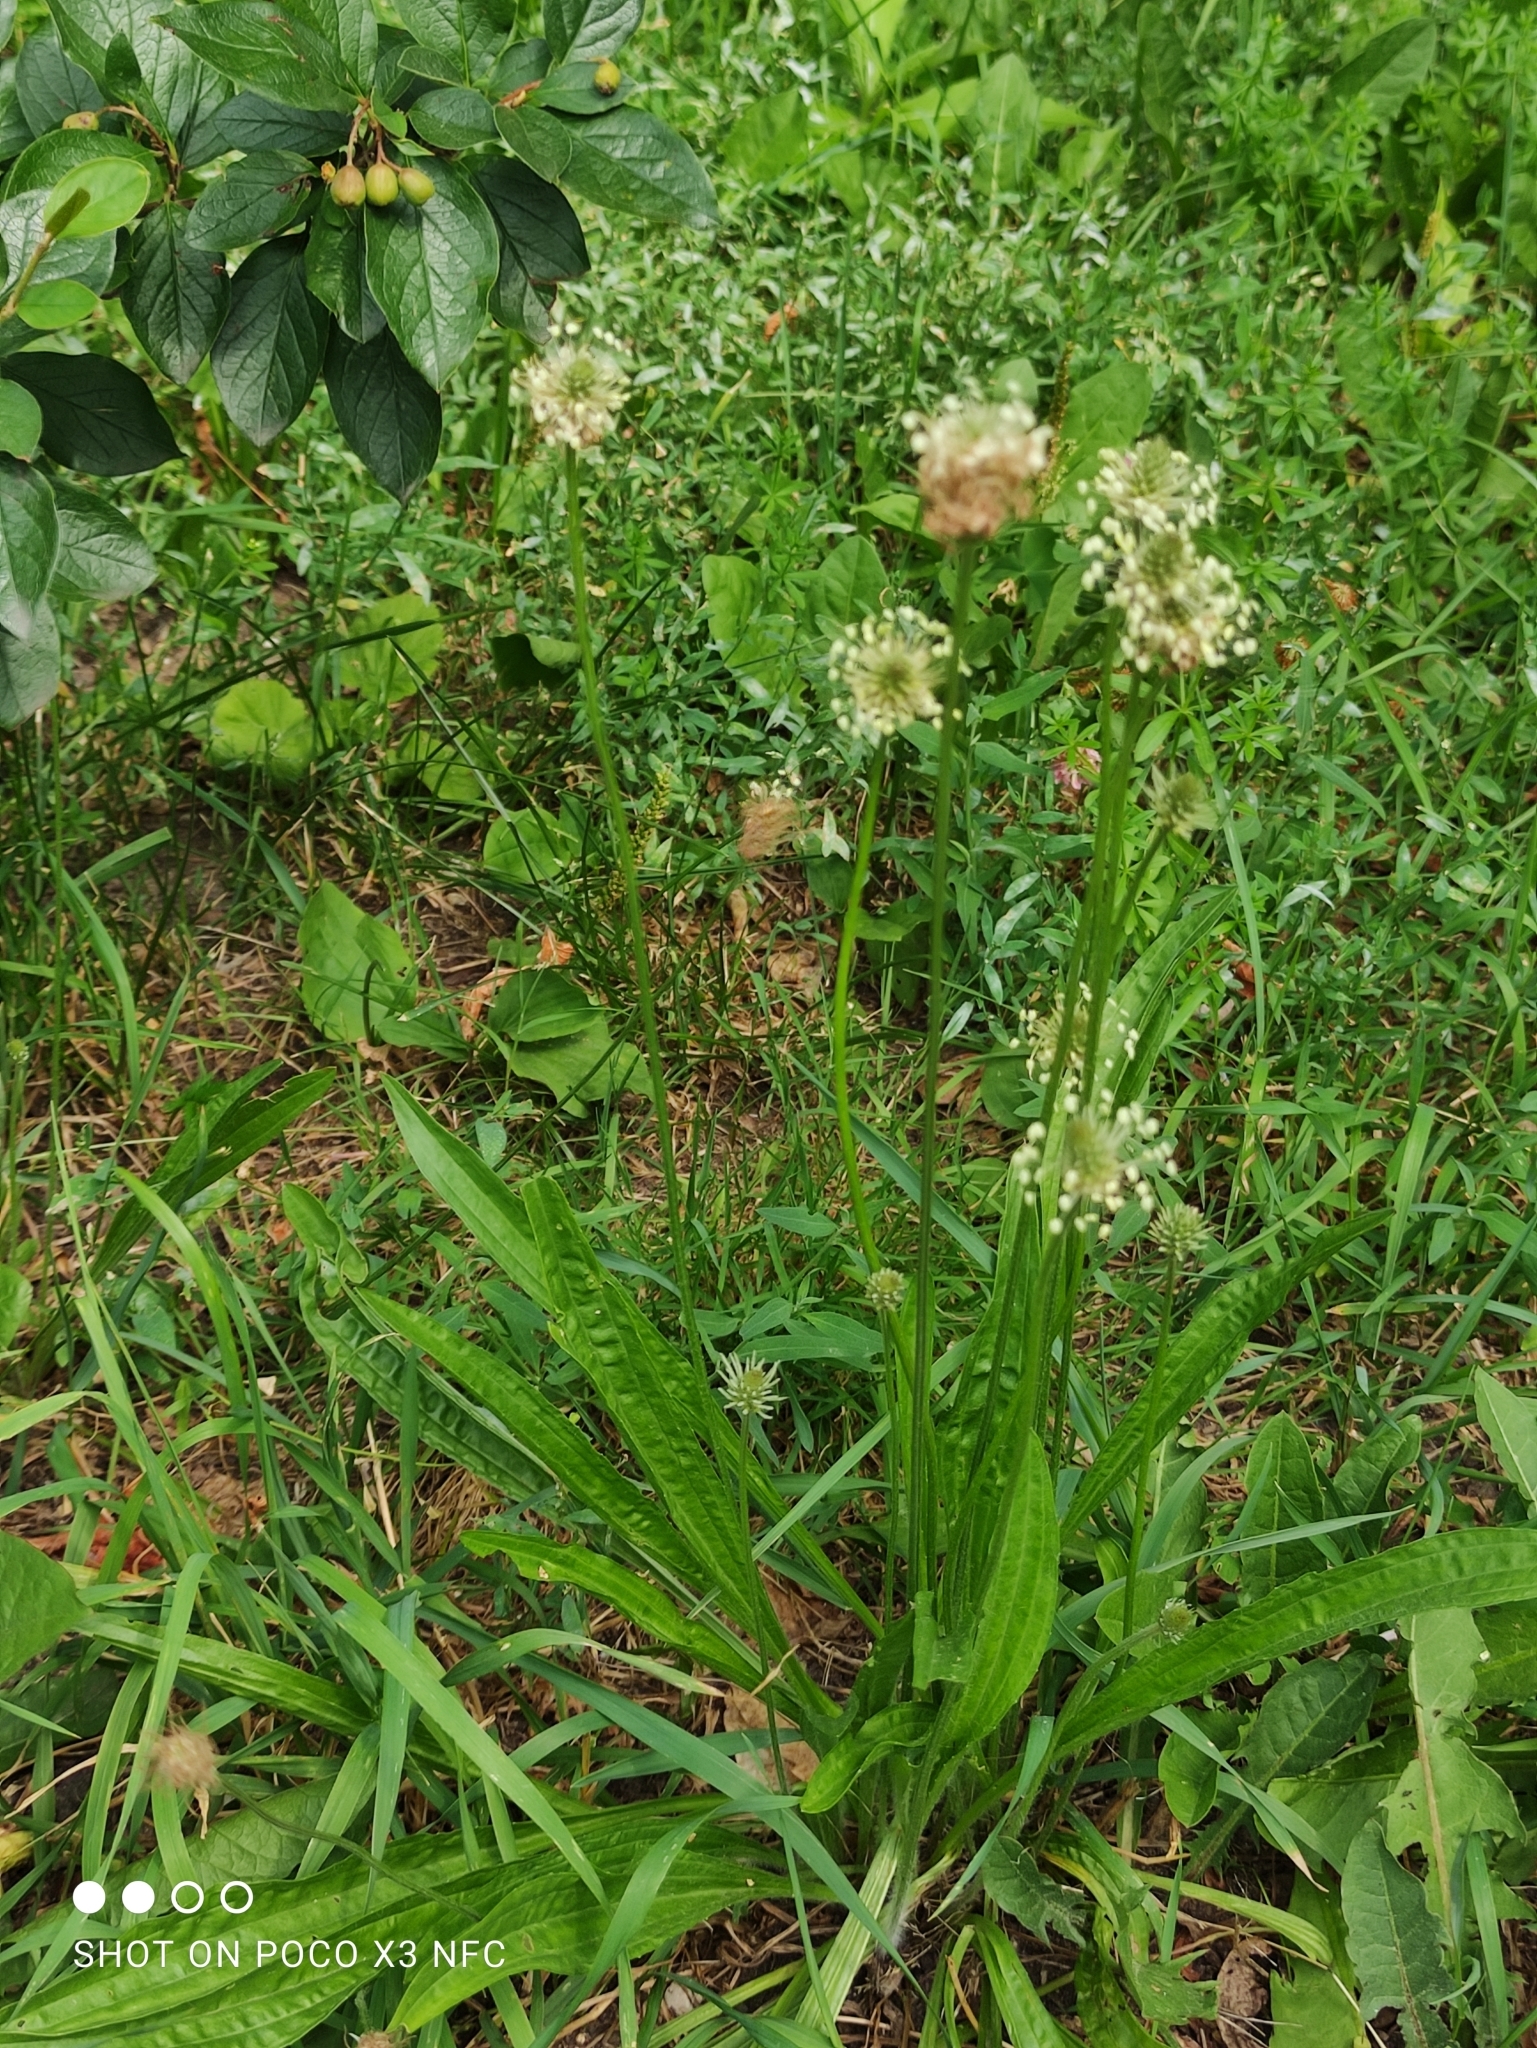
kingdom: Plantae
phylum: Tracheophyta
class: Magnoliopsida
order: Lamiales
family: Plantaginaceae
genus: Plantago
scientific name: Plantago lanceolata
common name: Ribwort plantain
